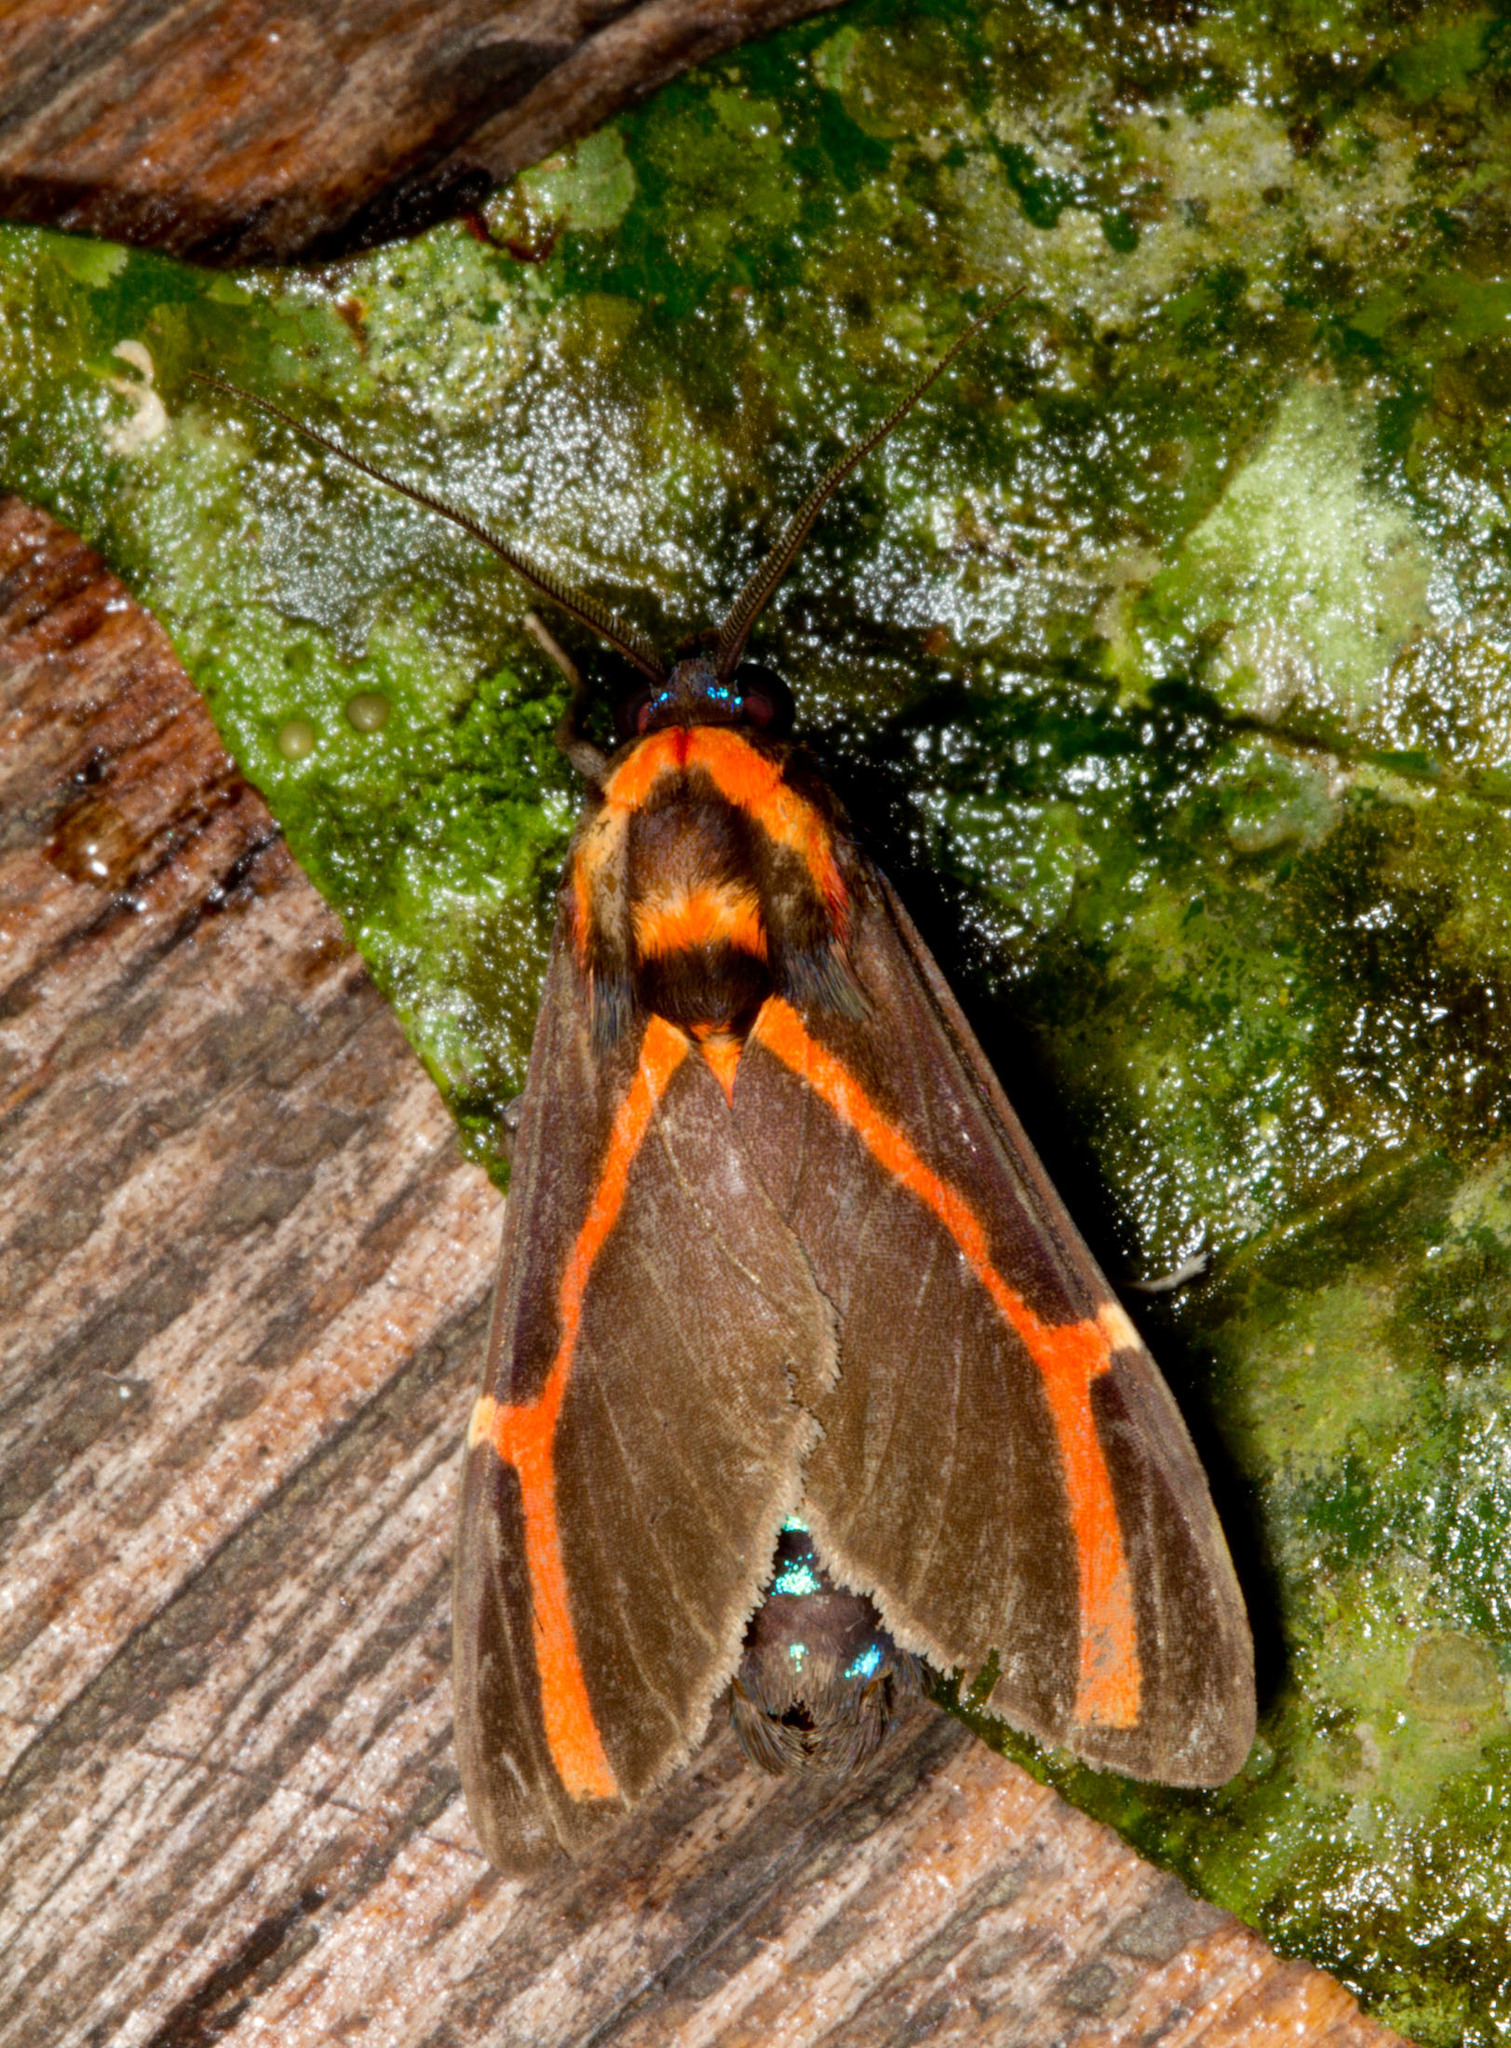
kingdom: Animalia
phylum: Arthropoda
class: Insecta
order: Lepidoptera
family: Erebidae
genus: Himerarctia
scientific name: Himerarctia docis
